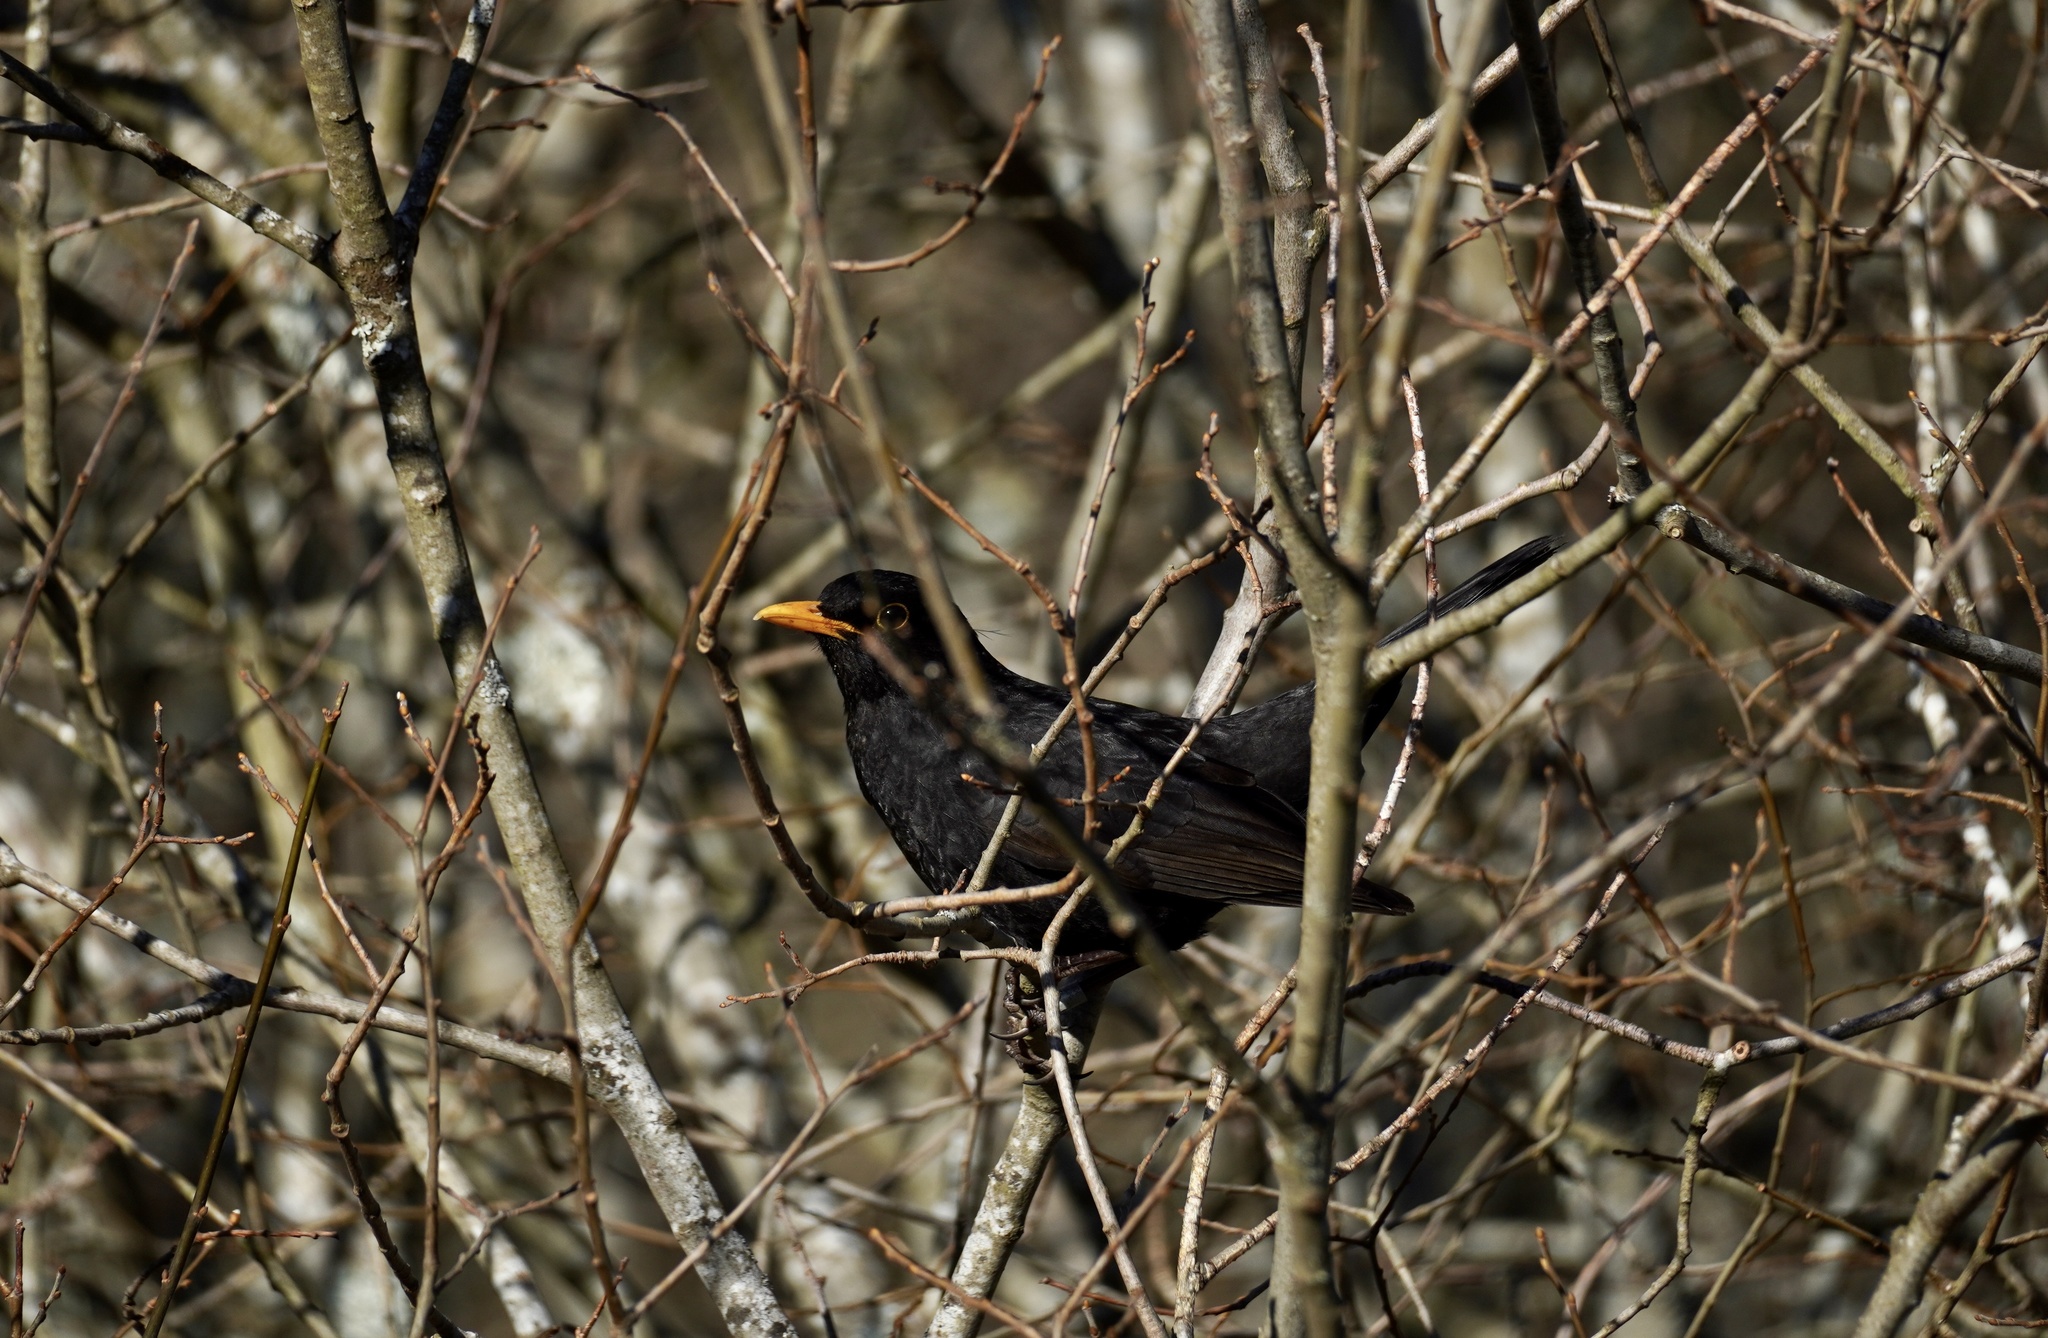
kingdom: Animalia
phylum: Chordata
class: Aves
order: Passeriformes
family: Turdidae
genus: Turdus
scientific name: Turdus merula
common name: Common blackbird
